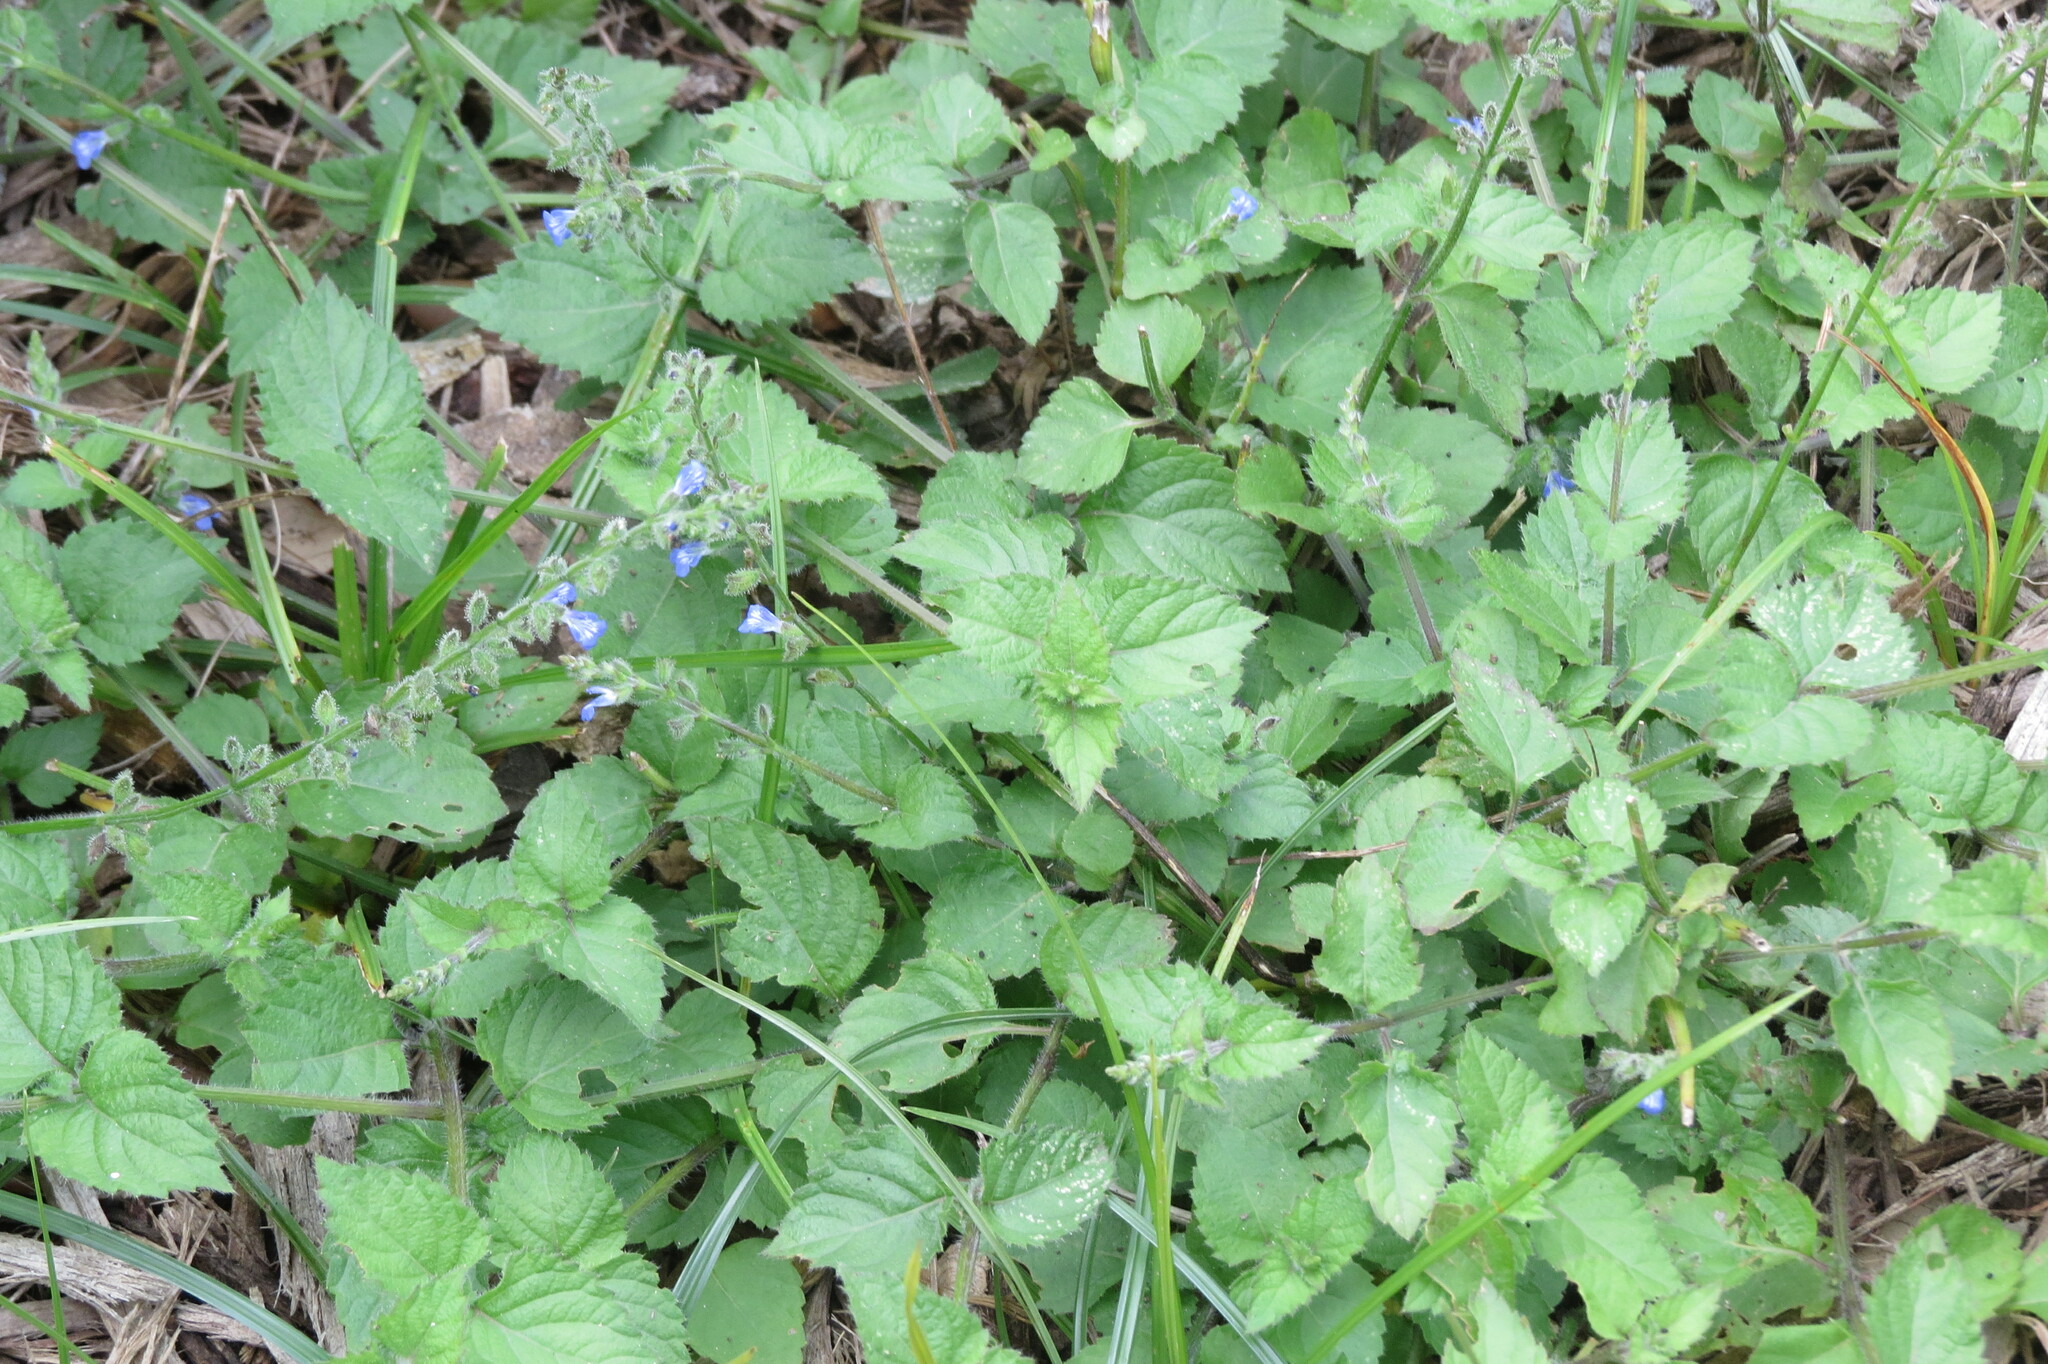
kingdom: Plantae
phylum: Tracheophyta
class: Magnoliopsida
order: Lamiales
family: Lamiaceae
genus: Salvia
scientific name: Salvia misella
